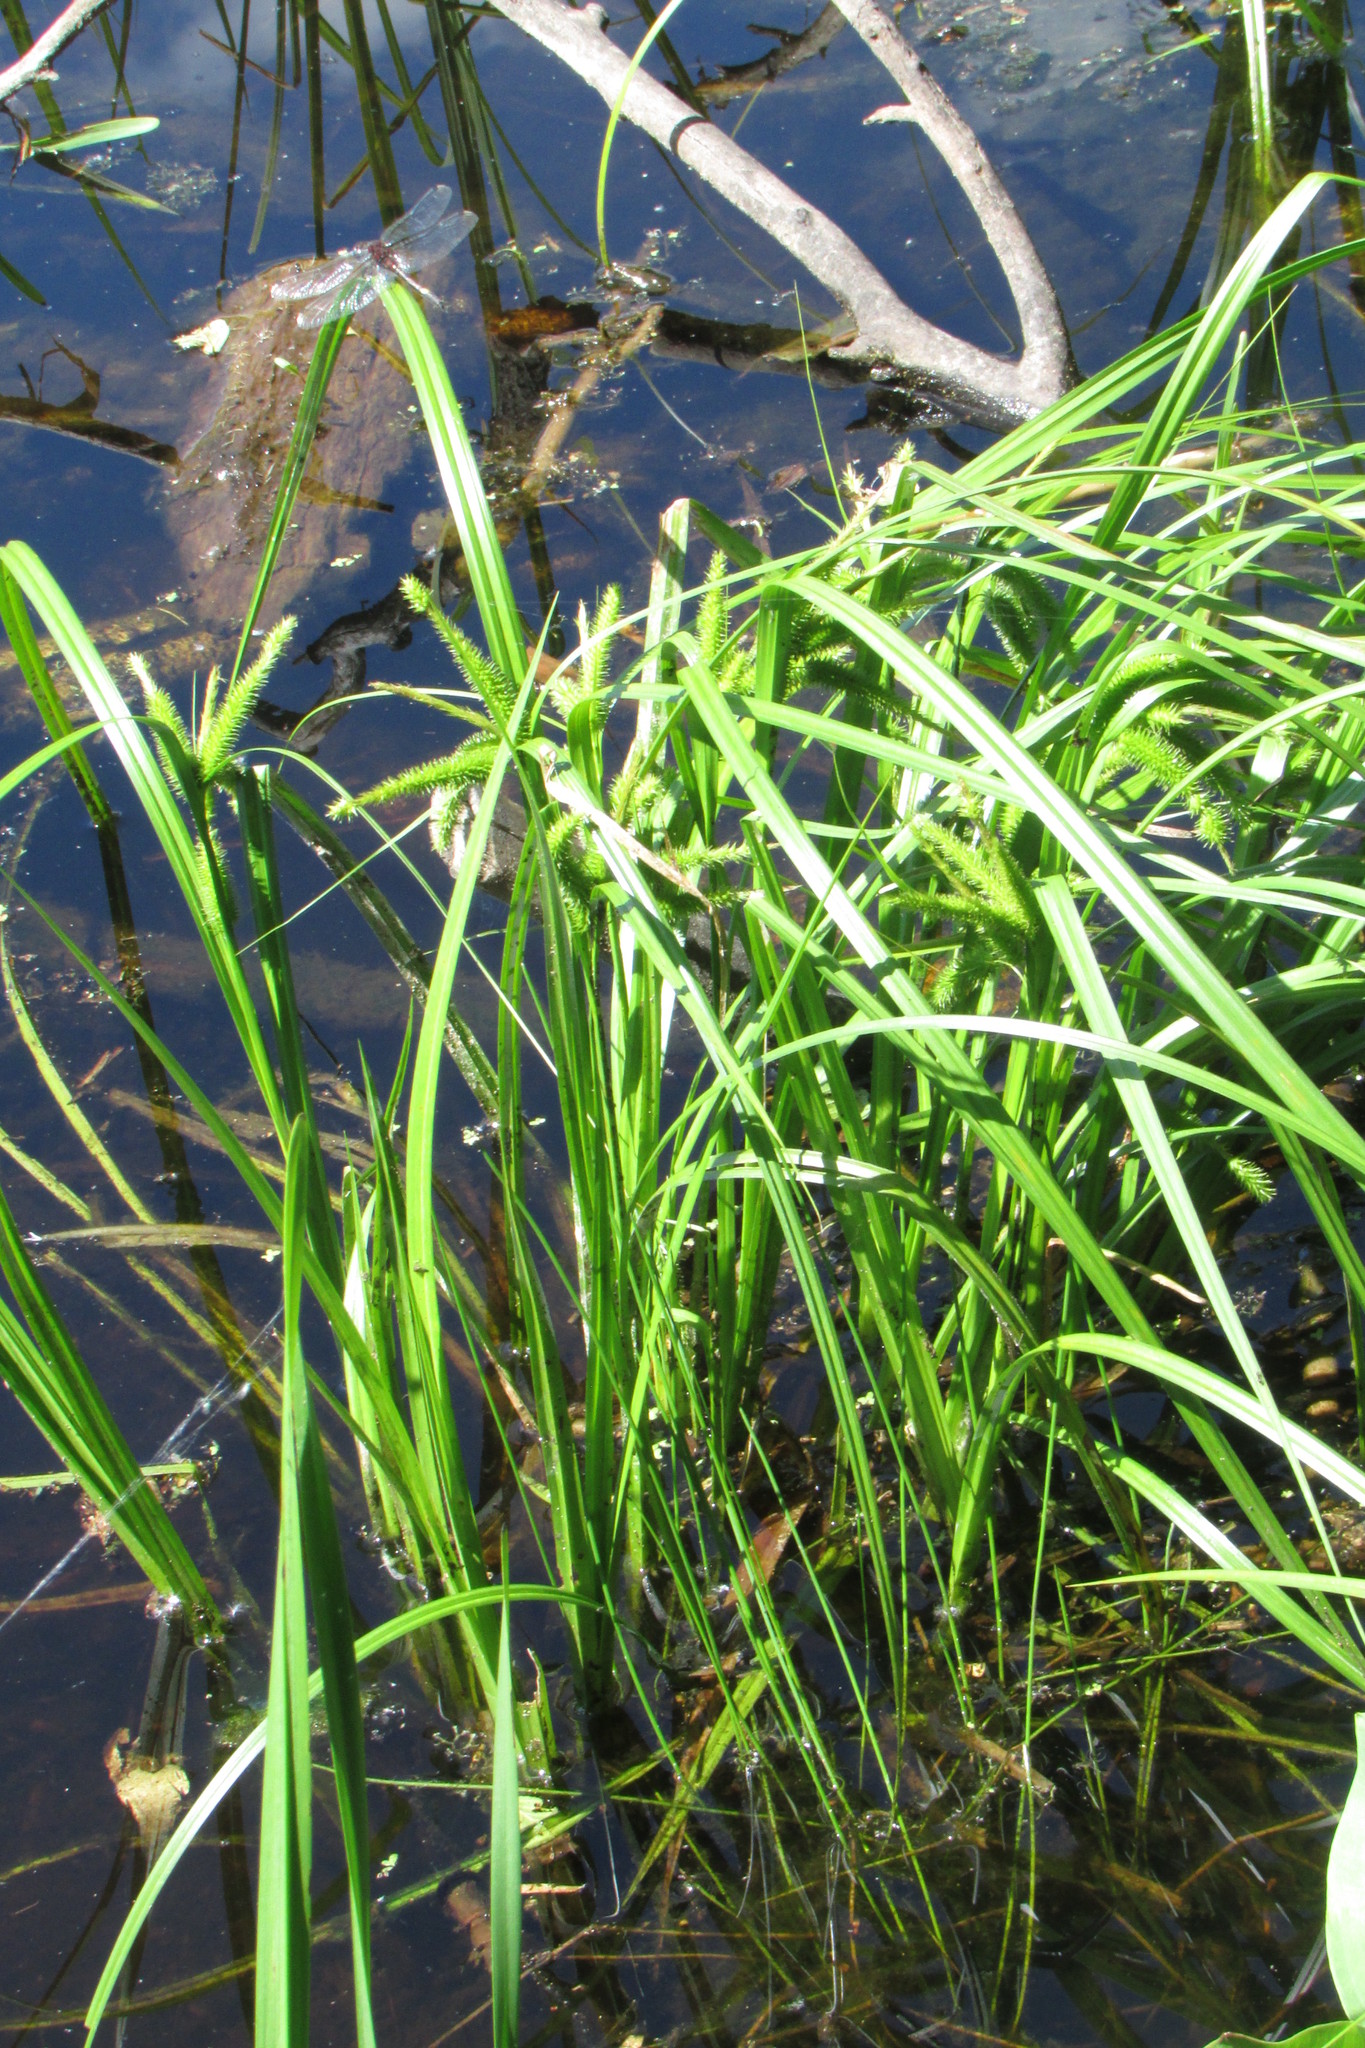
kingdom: Plantae
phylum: Tracheophyta
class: Liliopsida
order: Poales
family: Cyperaceae
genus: Carex
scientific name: Carex pseudocyperus
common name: Cyperus sedge
